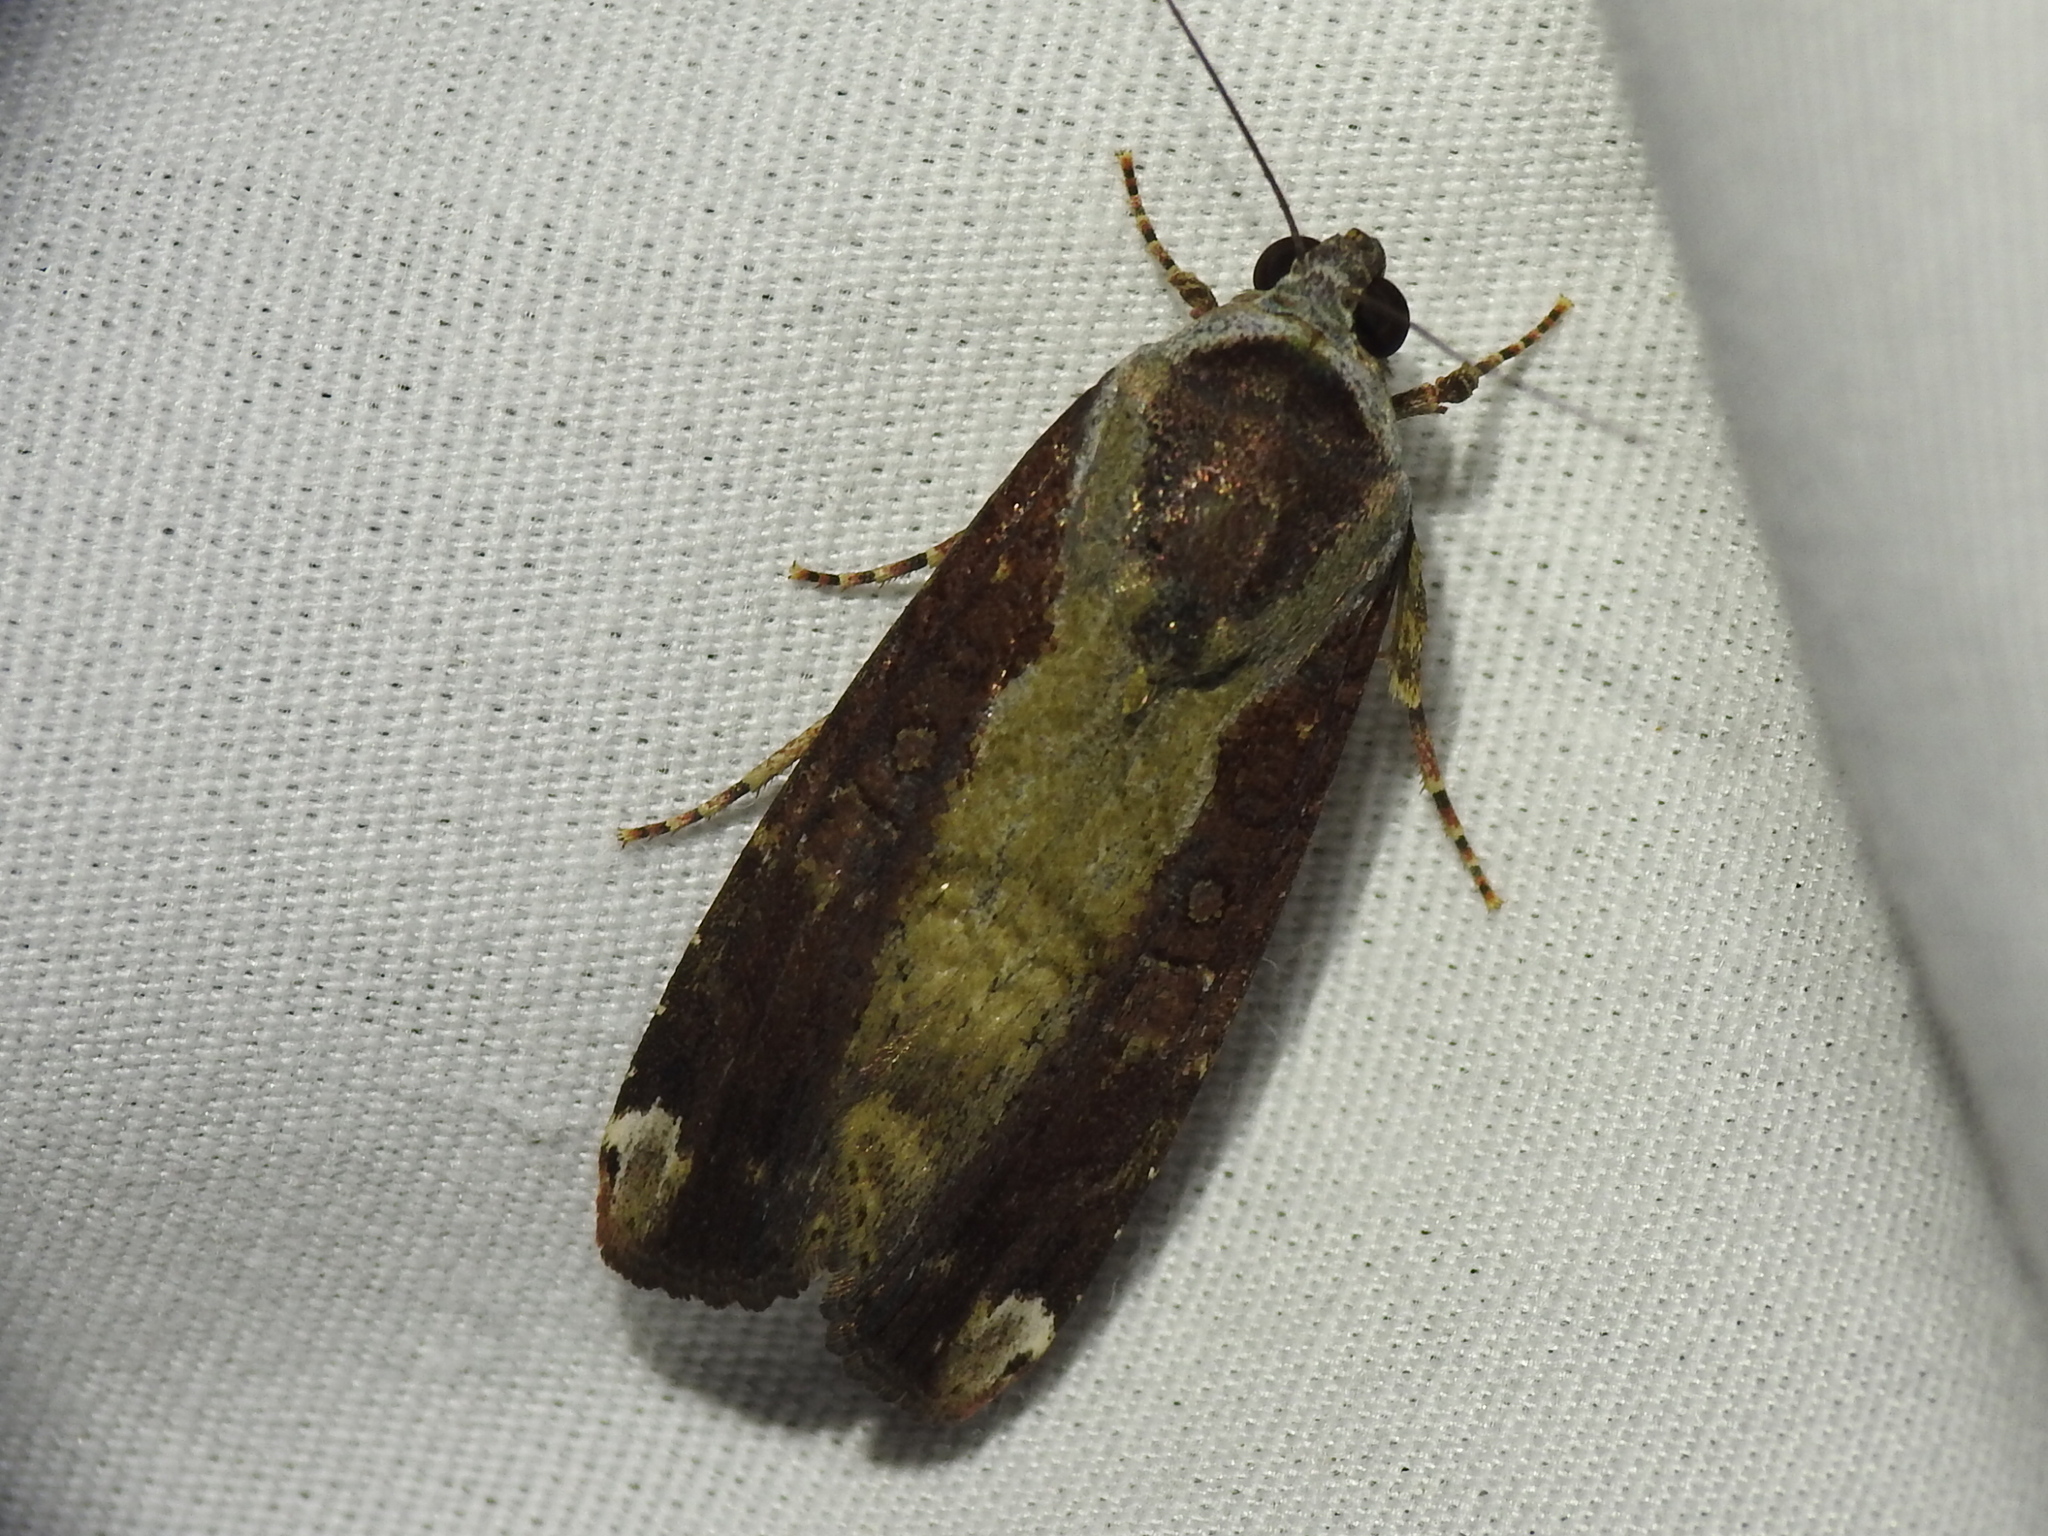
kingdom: Animalia
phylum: Arthropoda
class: Insecta
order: Lepidoptera
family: Noctuidae
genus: Magusa
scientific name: Magusa divaricata
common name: Orb narrow-winged moth
